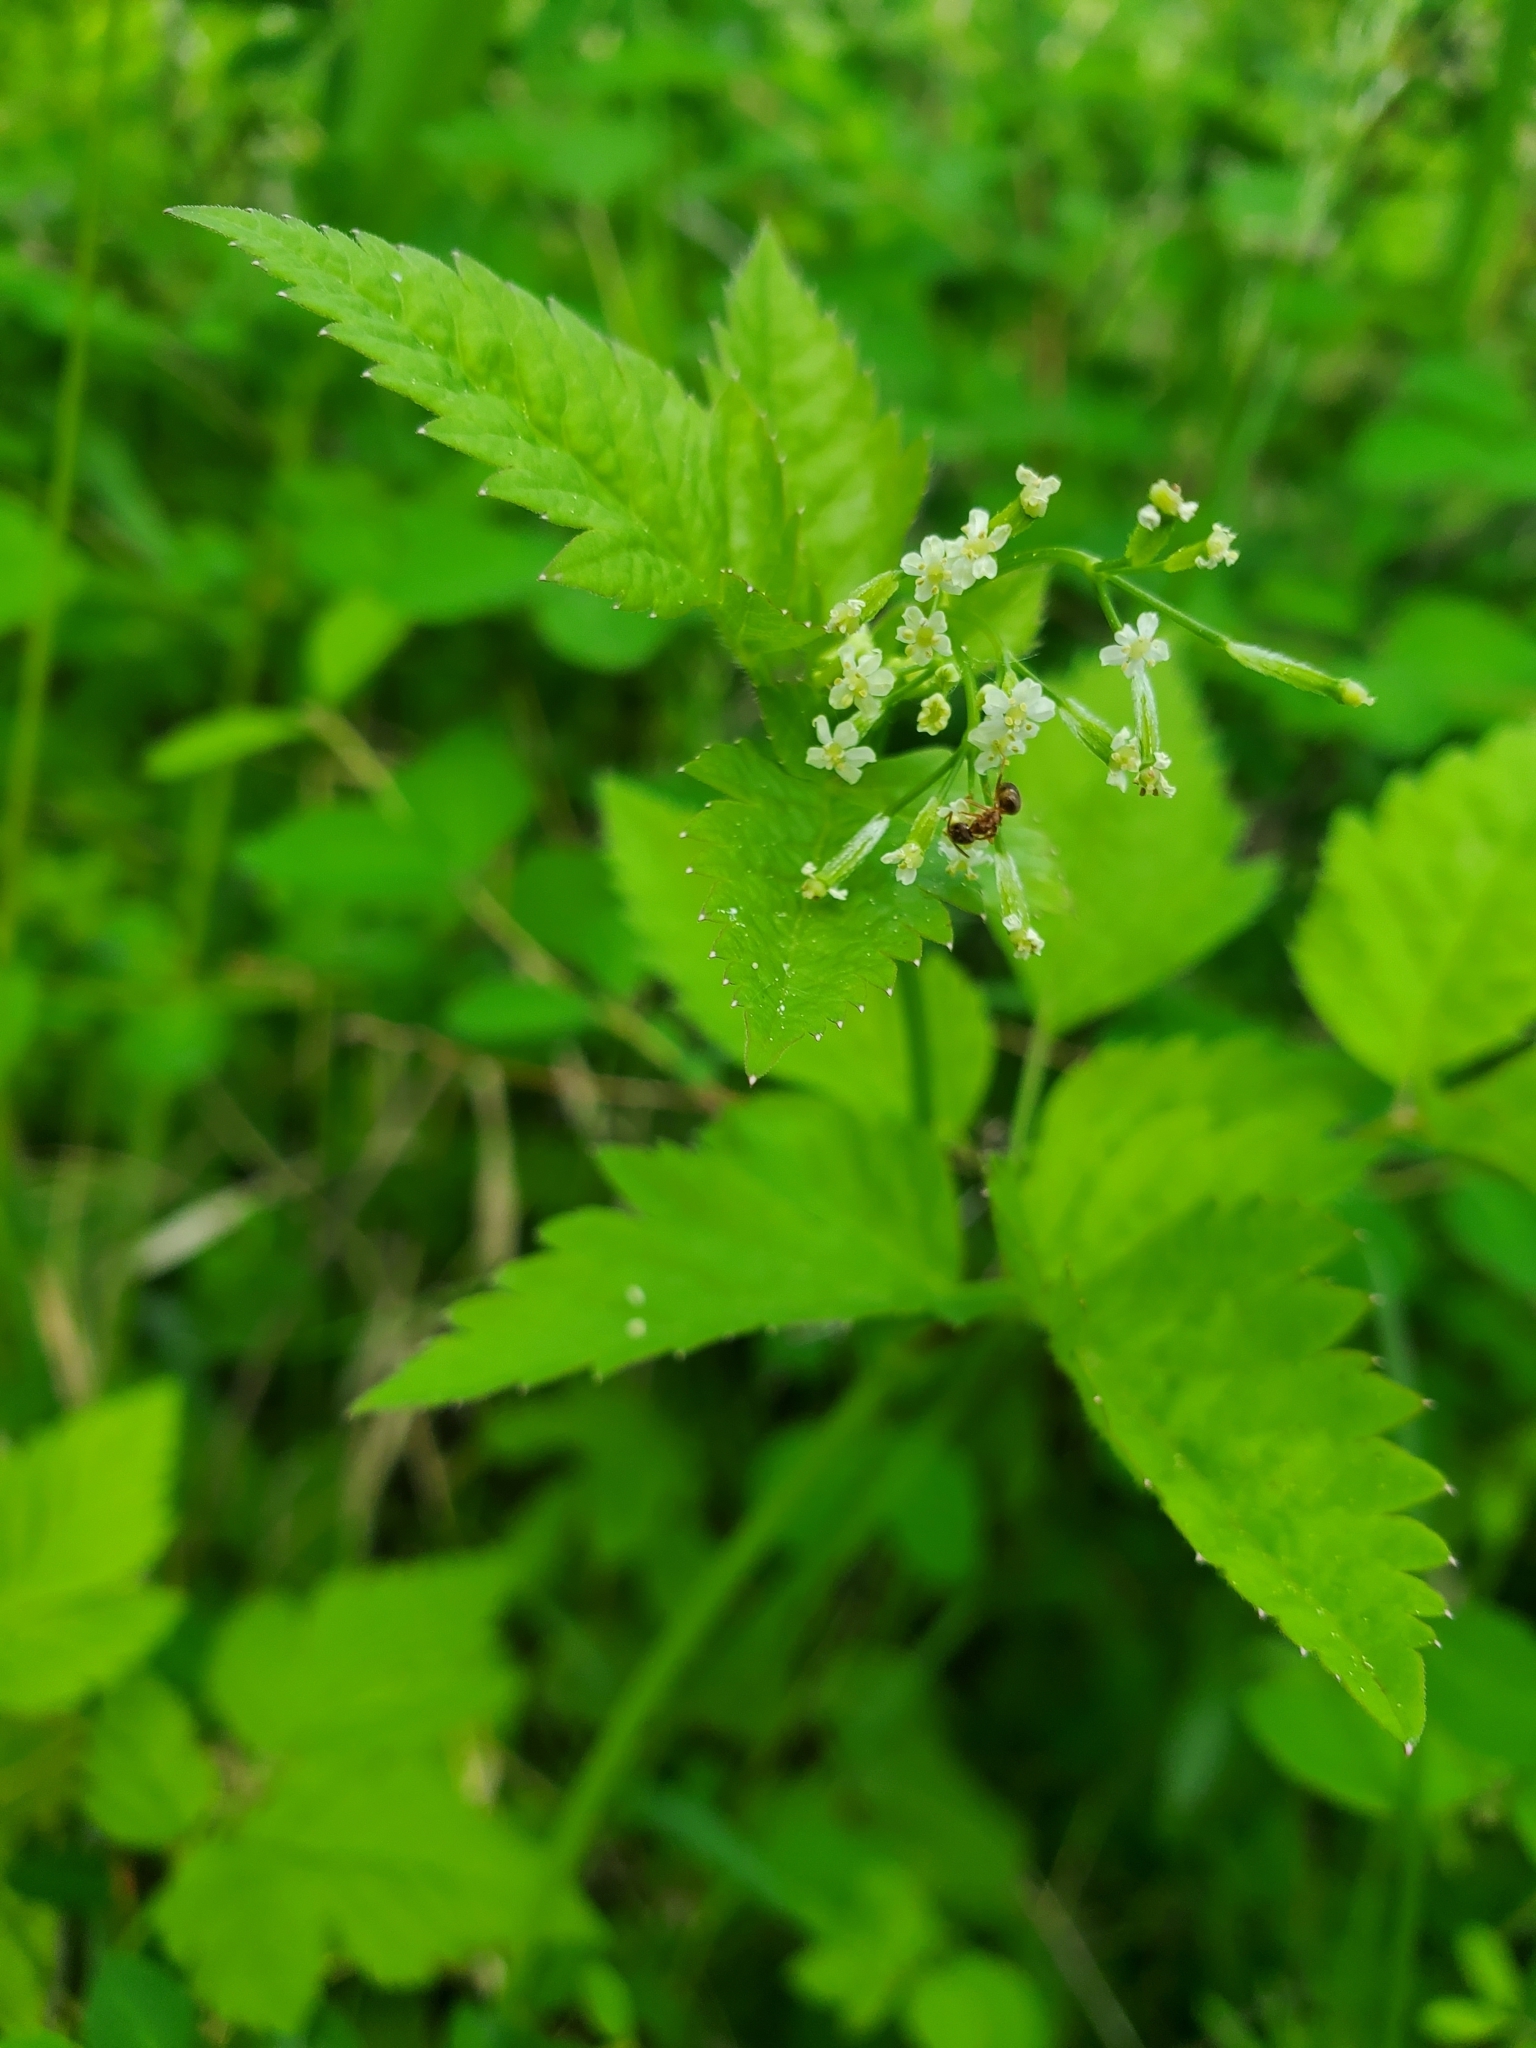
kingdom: Plantae
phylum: Tracheophyta
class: Magnoliopsida
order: Apiales
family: Apiaceae
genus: Osmorhiza
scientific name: Osmorhiza berteroi
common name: Mountain sweet cicely
